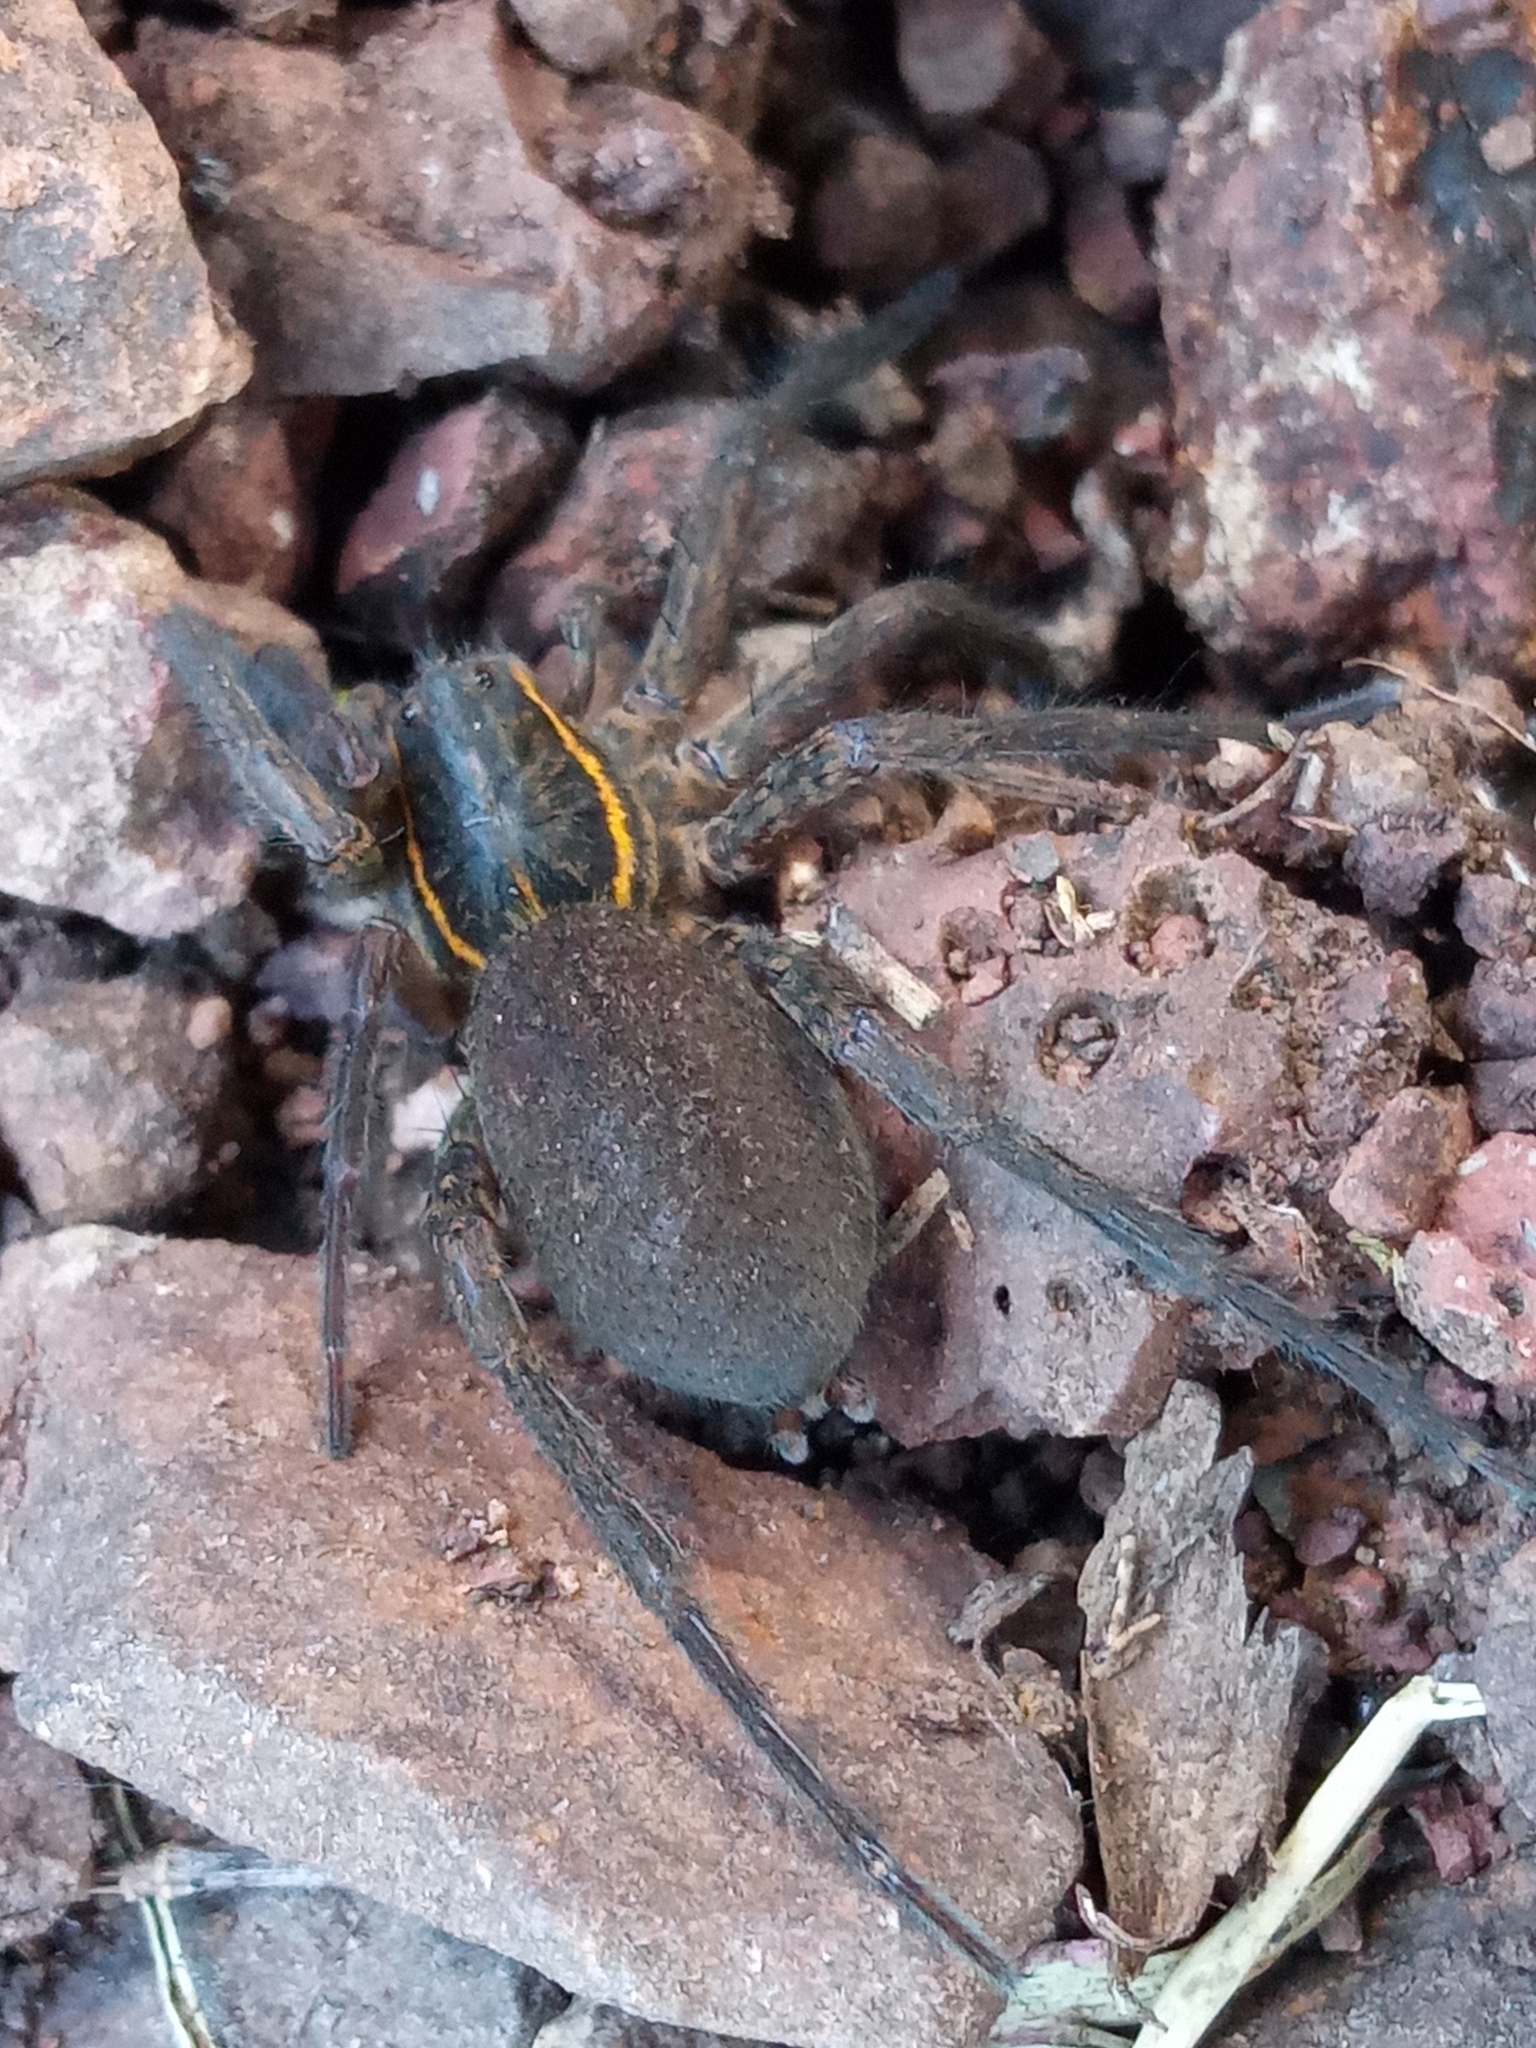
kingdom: Animalia
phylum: Arthropoda
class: Arachnida
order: Araneae
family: Lycosidae
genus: Aglaoctenus
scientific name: Aglaoctenus yacytata
